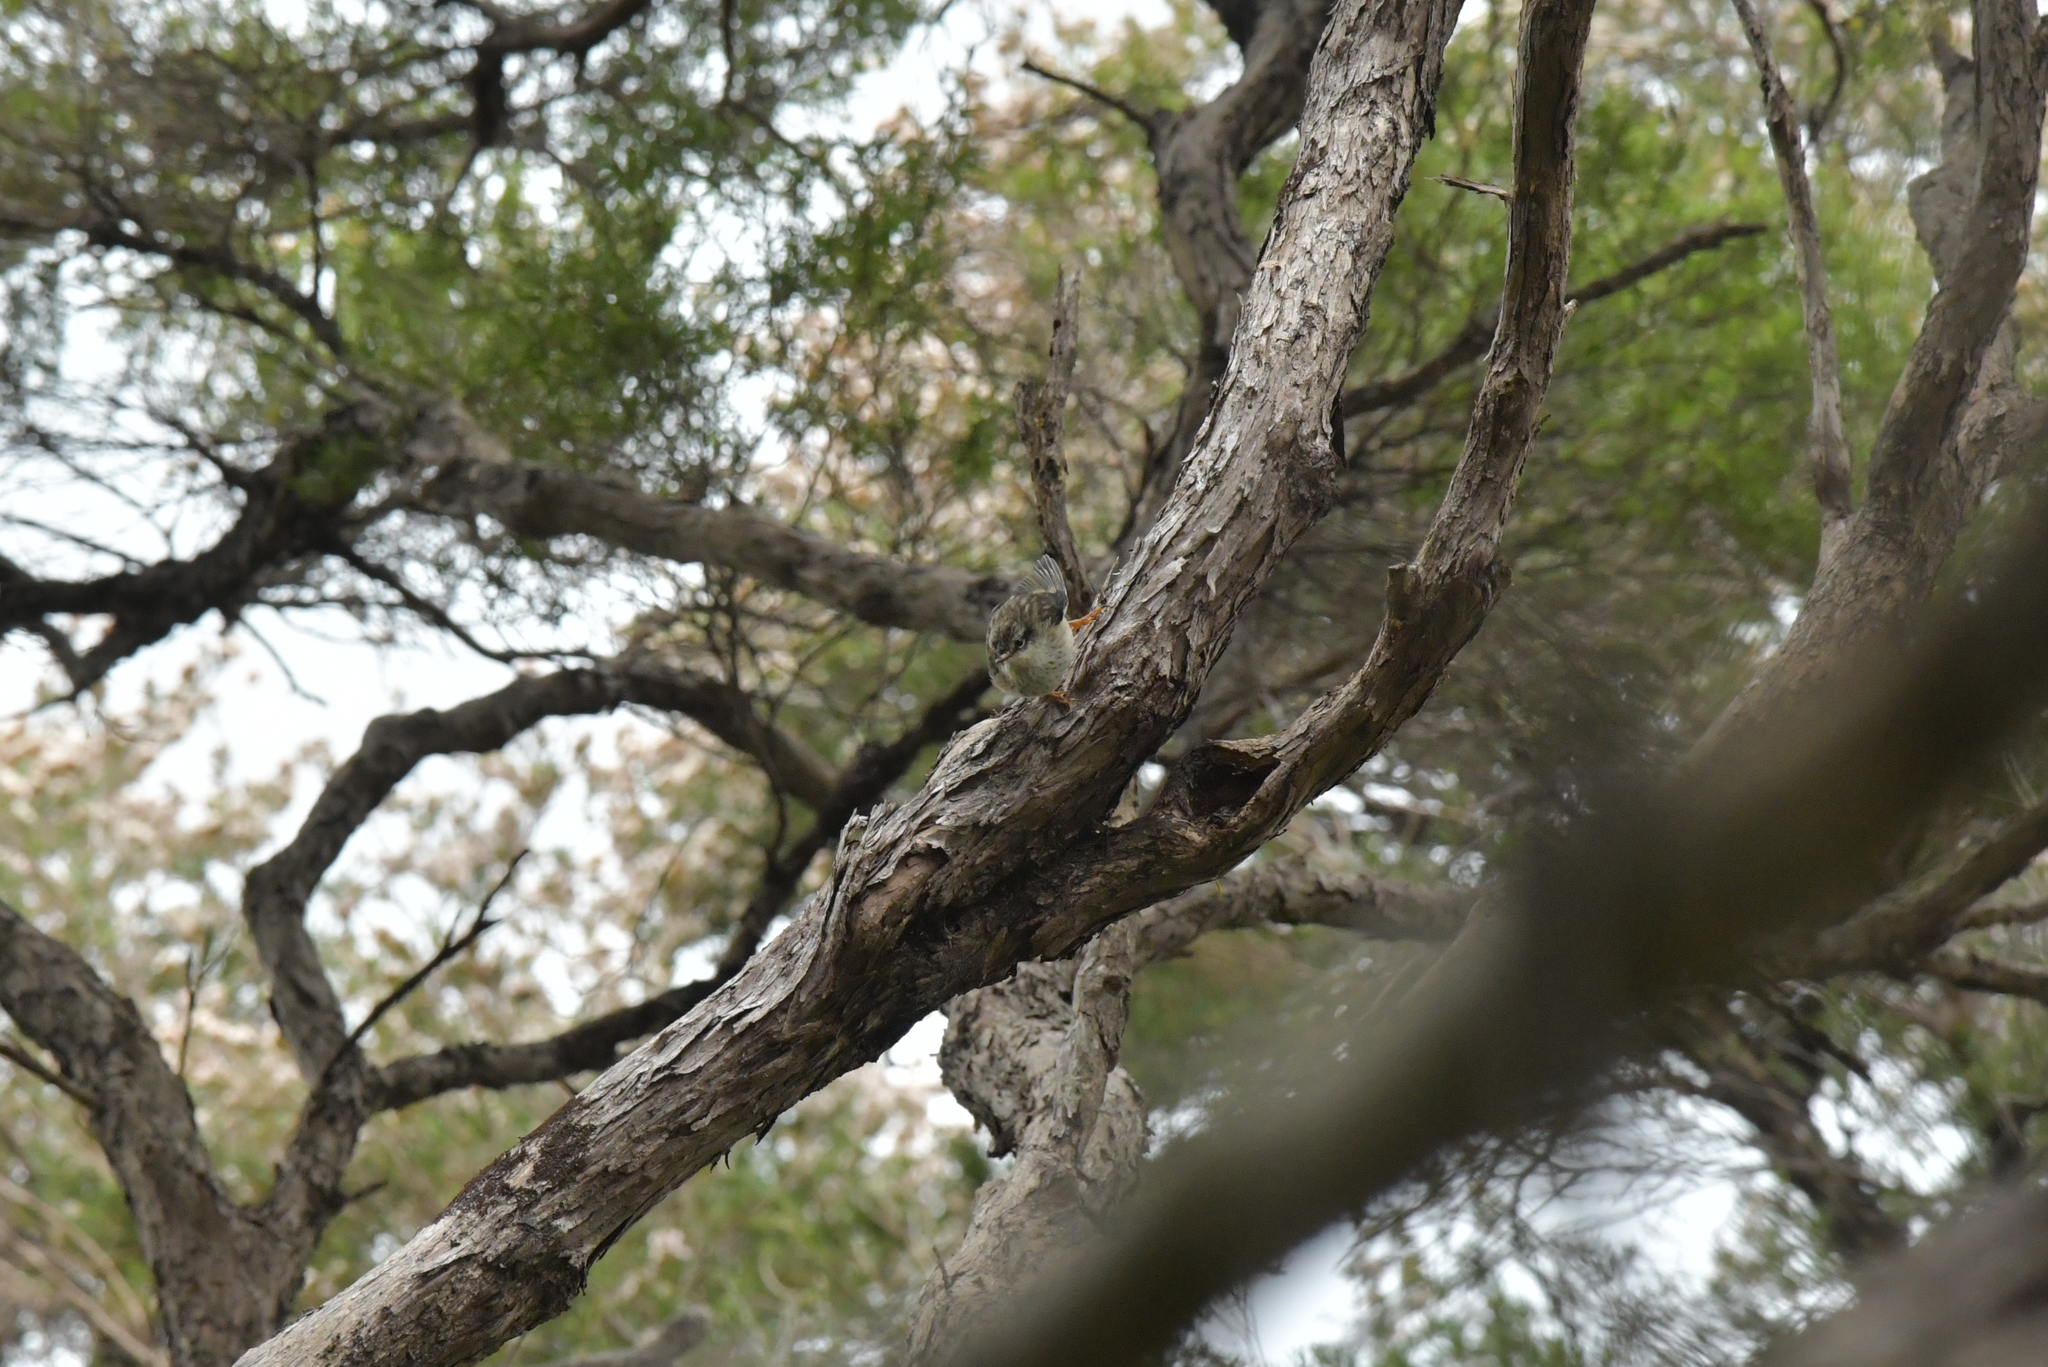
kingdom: Animalia
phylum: Chordata
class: Aves
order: Passeriformes
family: Acanthisittidae
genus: Acanthisitta
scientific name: Acanthisitta chloris
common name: Rifleman
